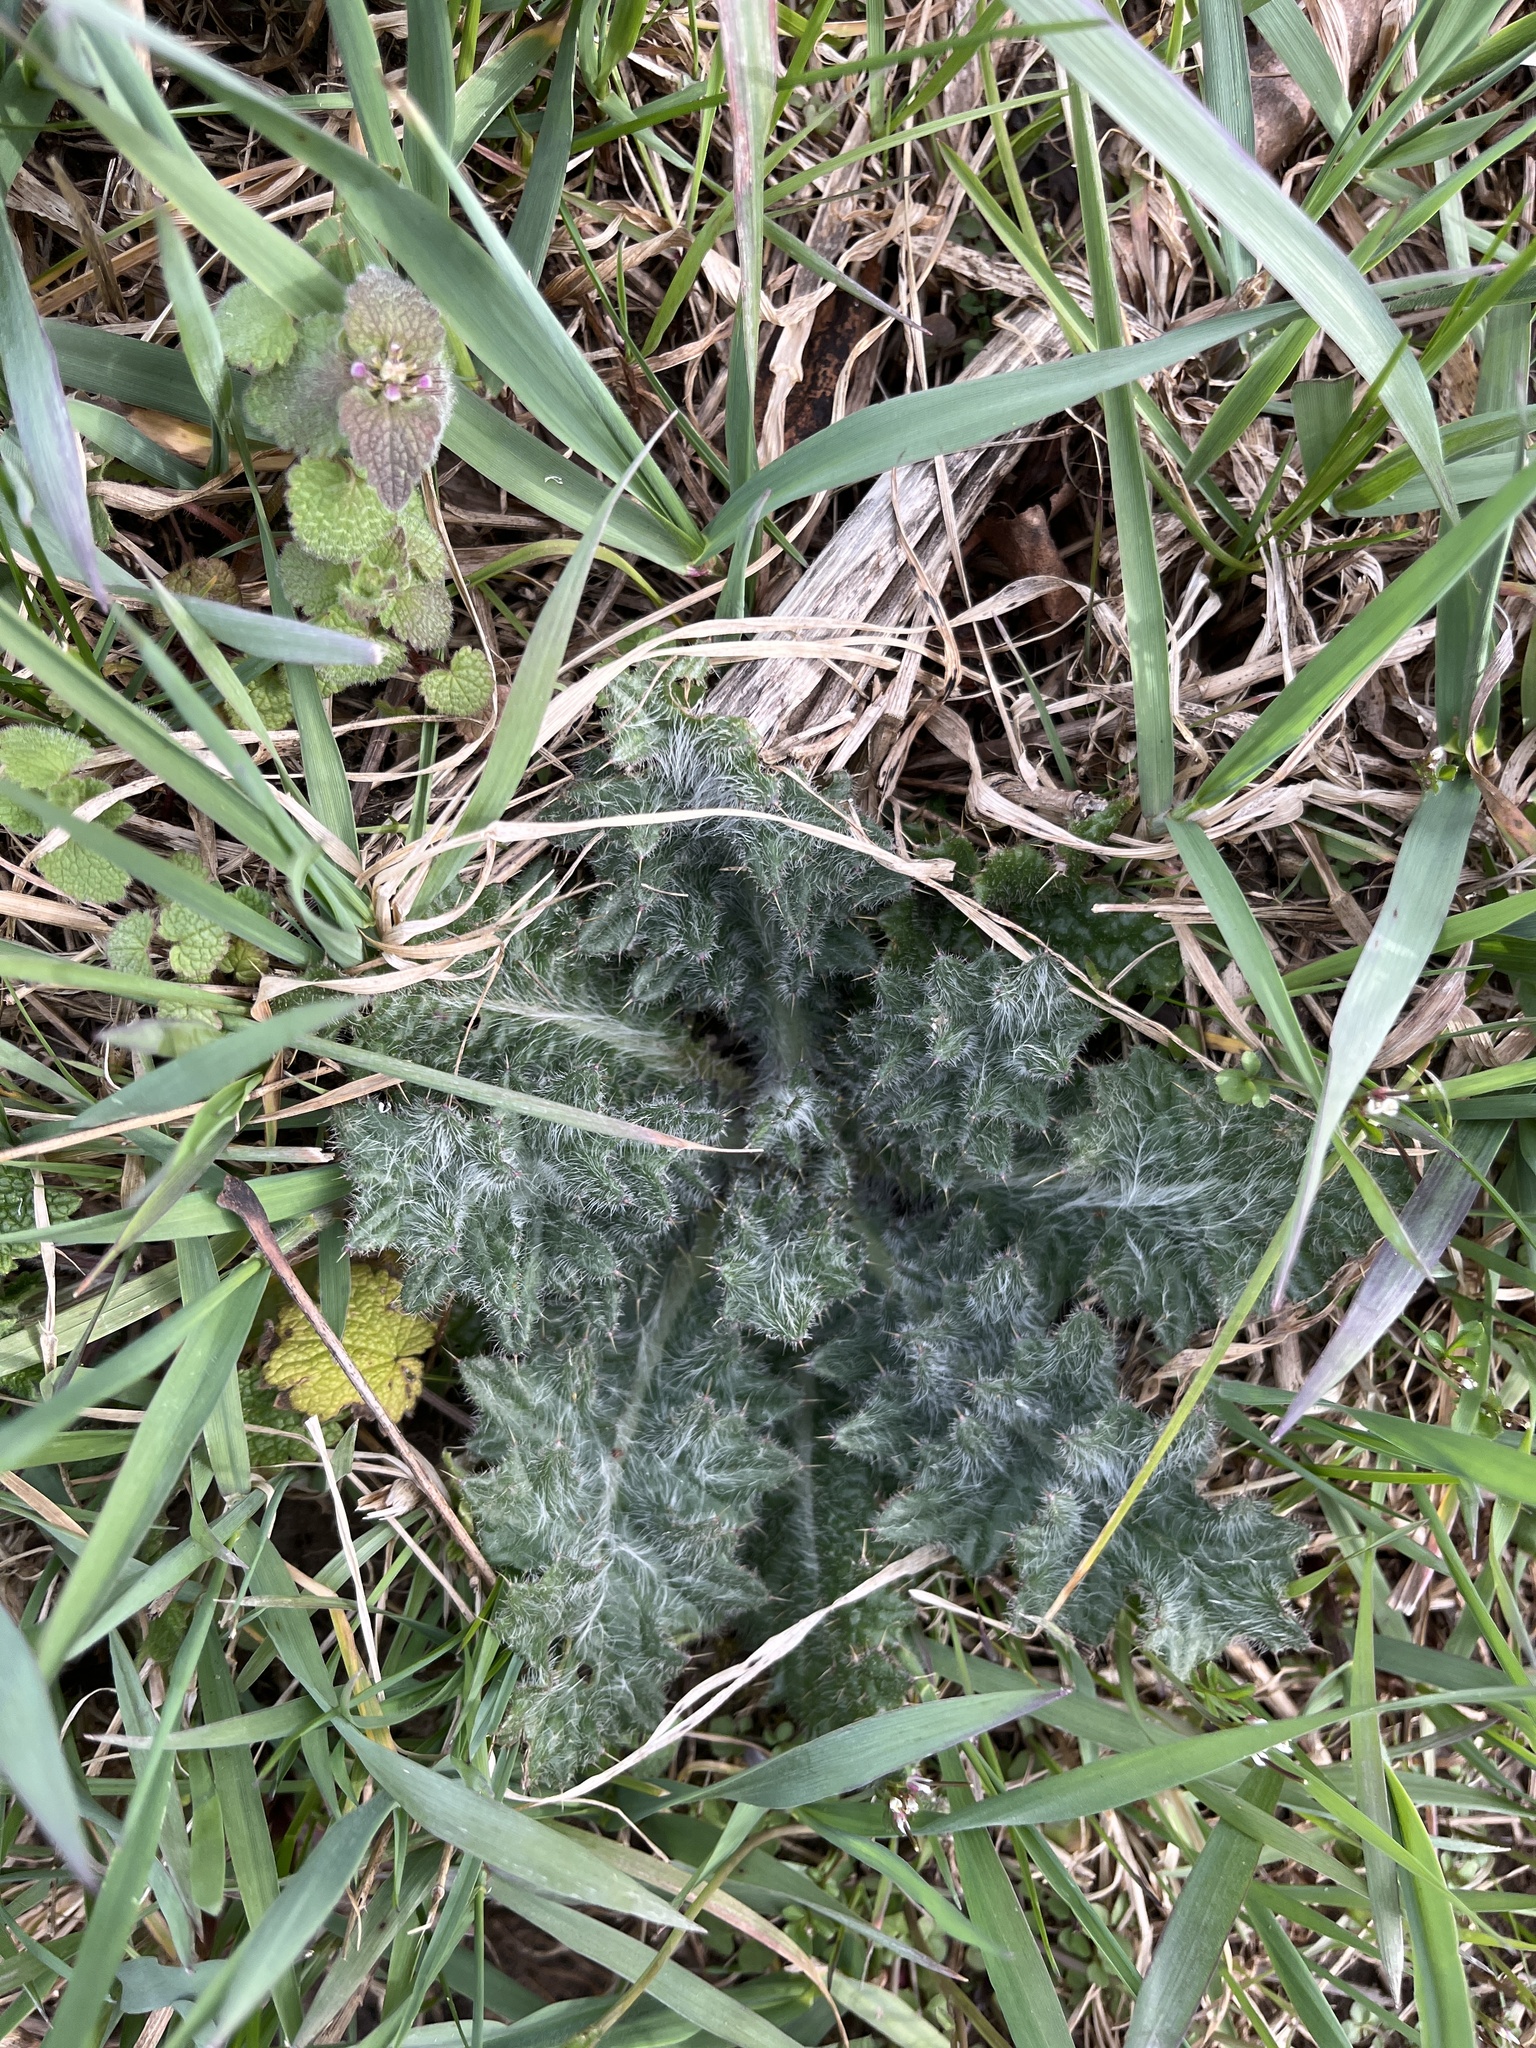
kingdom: Plantae
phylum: Tracheophyta
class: Magnoliopsida
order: Asterales
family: Asteraceae
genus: Cirsium
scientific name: Cirsium vulgare
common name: Bull thistle
